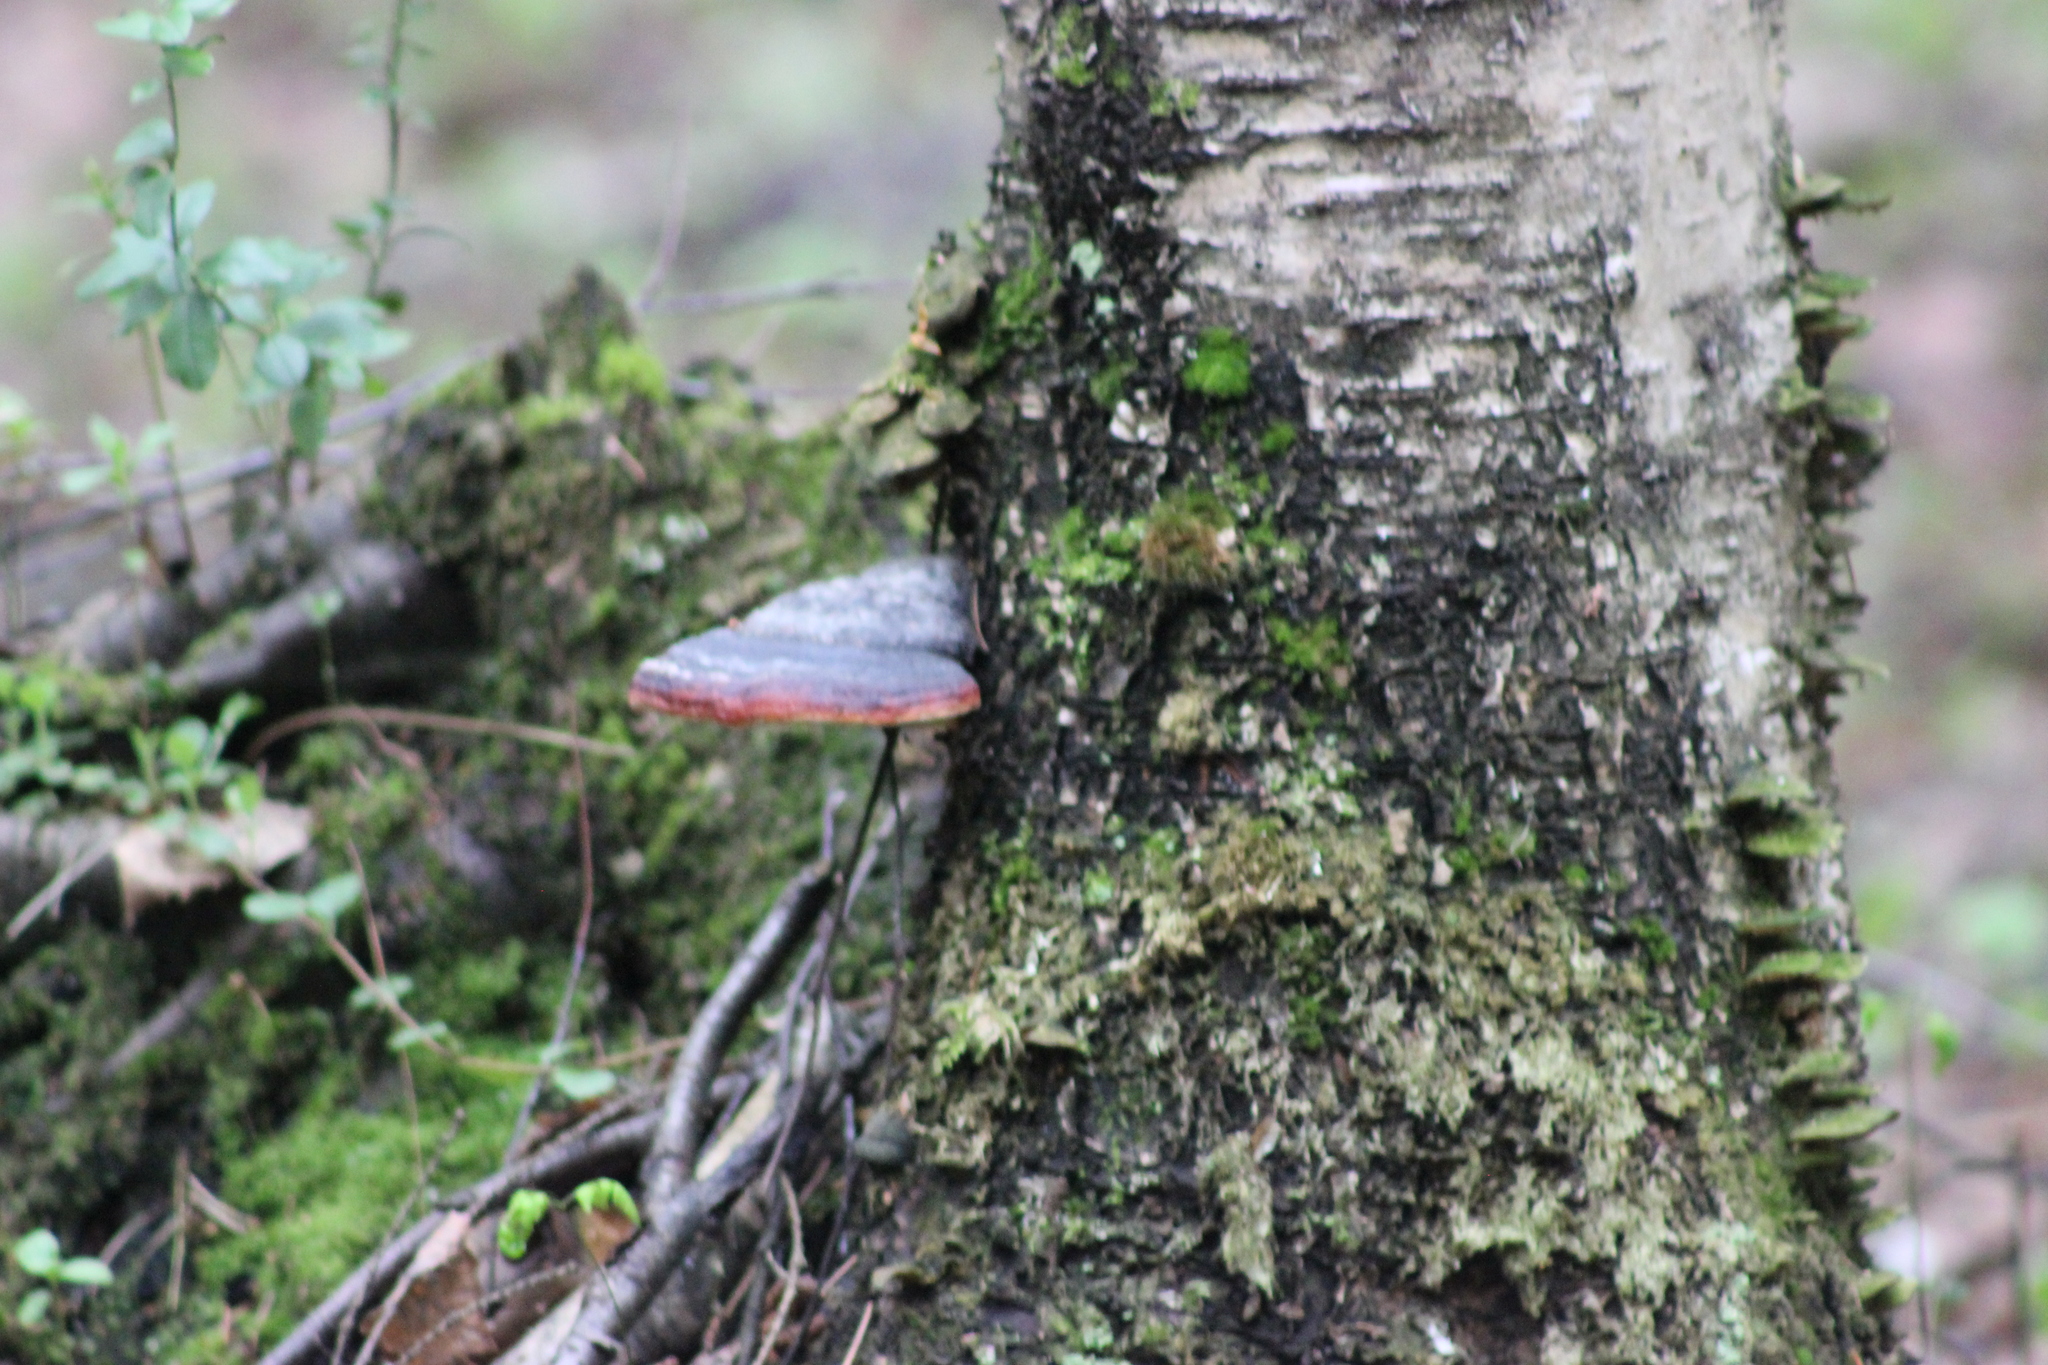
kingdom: Fungi
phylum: Basidiomycota
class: Agaricomycetes
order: Polyporales
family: Fomitopsidaceae
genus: Fomitopsis
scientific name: Fomitopsis pinicola
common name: Red-belted bracket
